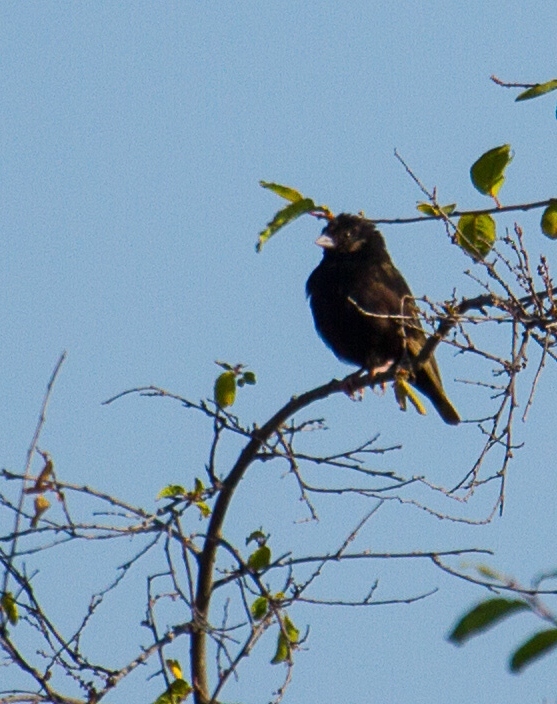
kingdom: Animalia
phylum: Chordata
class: Aves
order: Passeriformes
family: Viduidae
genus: Vidua
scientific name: Vidua purpurascens
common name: Purple indigobird
